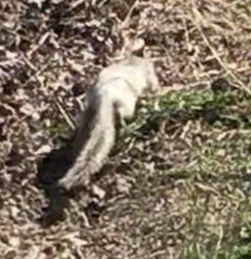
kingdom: Animalia
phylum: Chordata
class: Mammalia
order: Rodentia
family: Sciuridae
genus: Otospermophilus
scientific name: Otospermophilus beecheyi
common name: California ground squirrel
